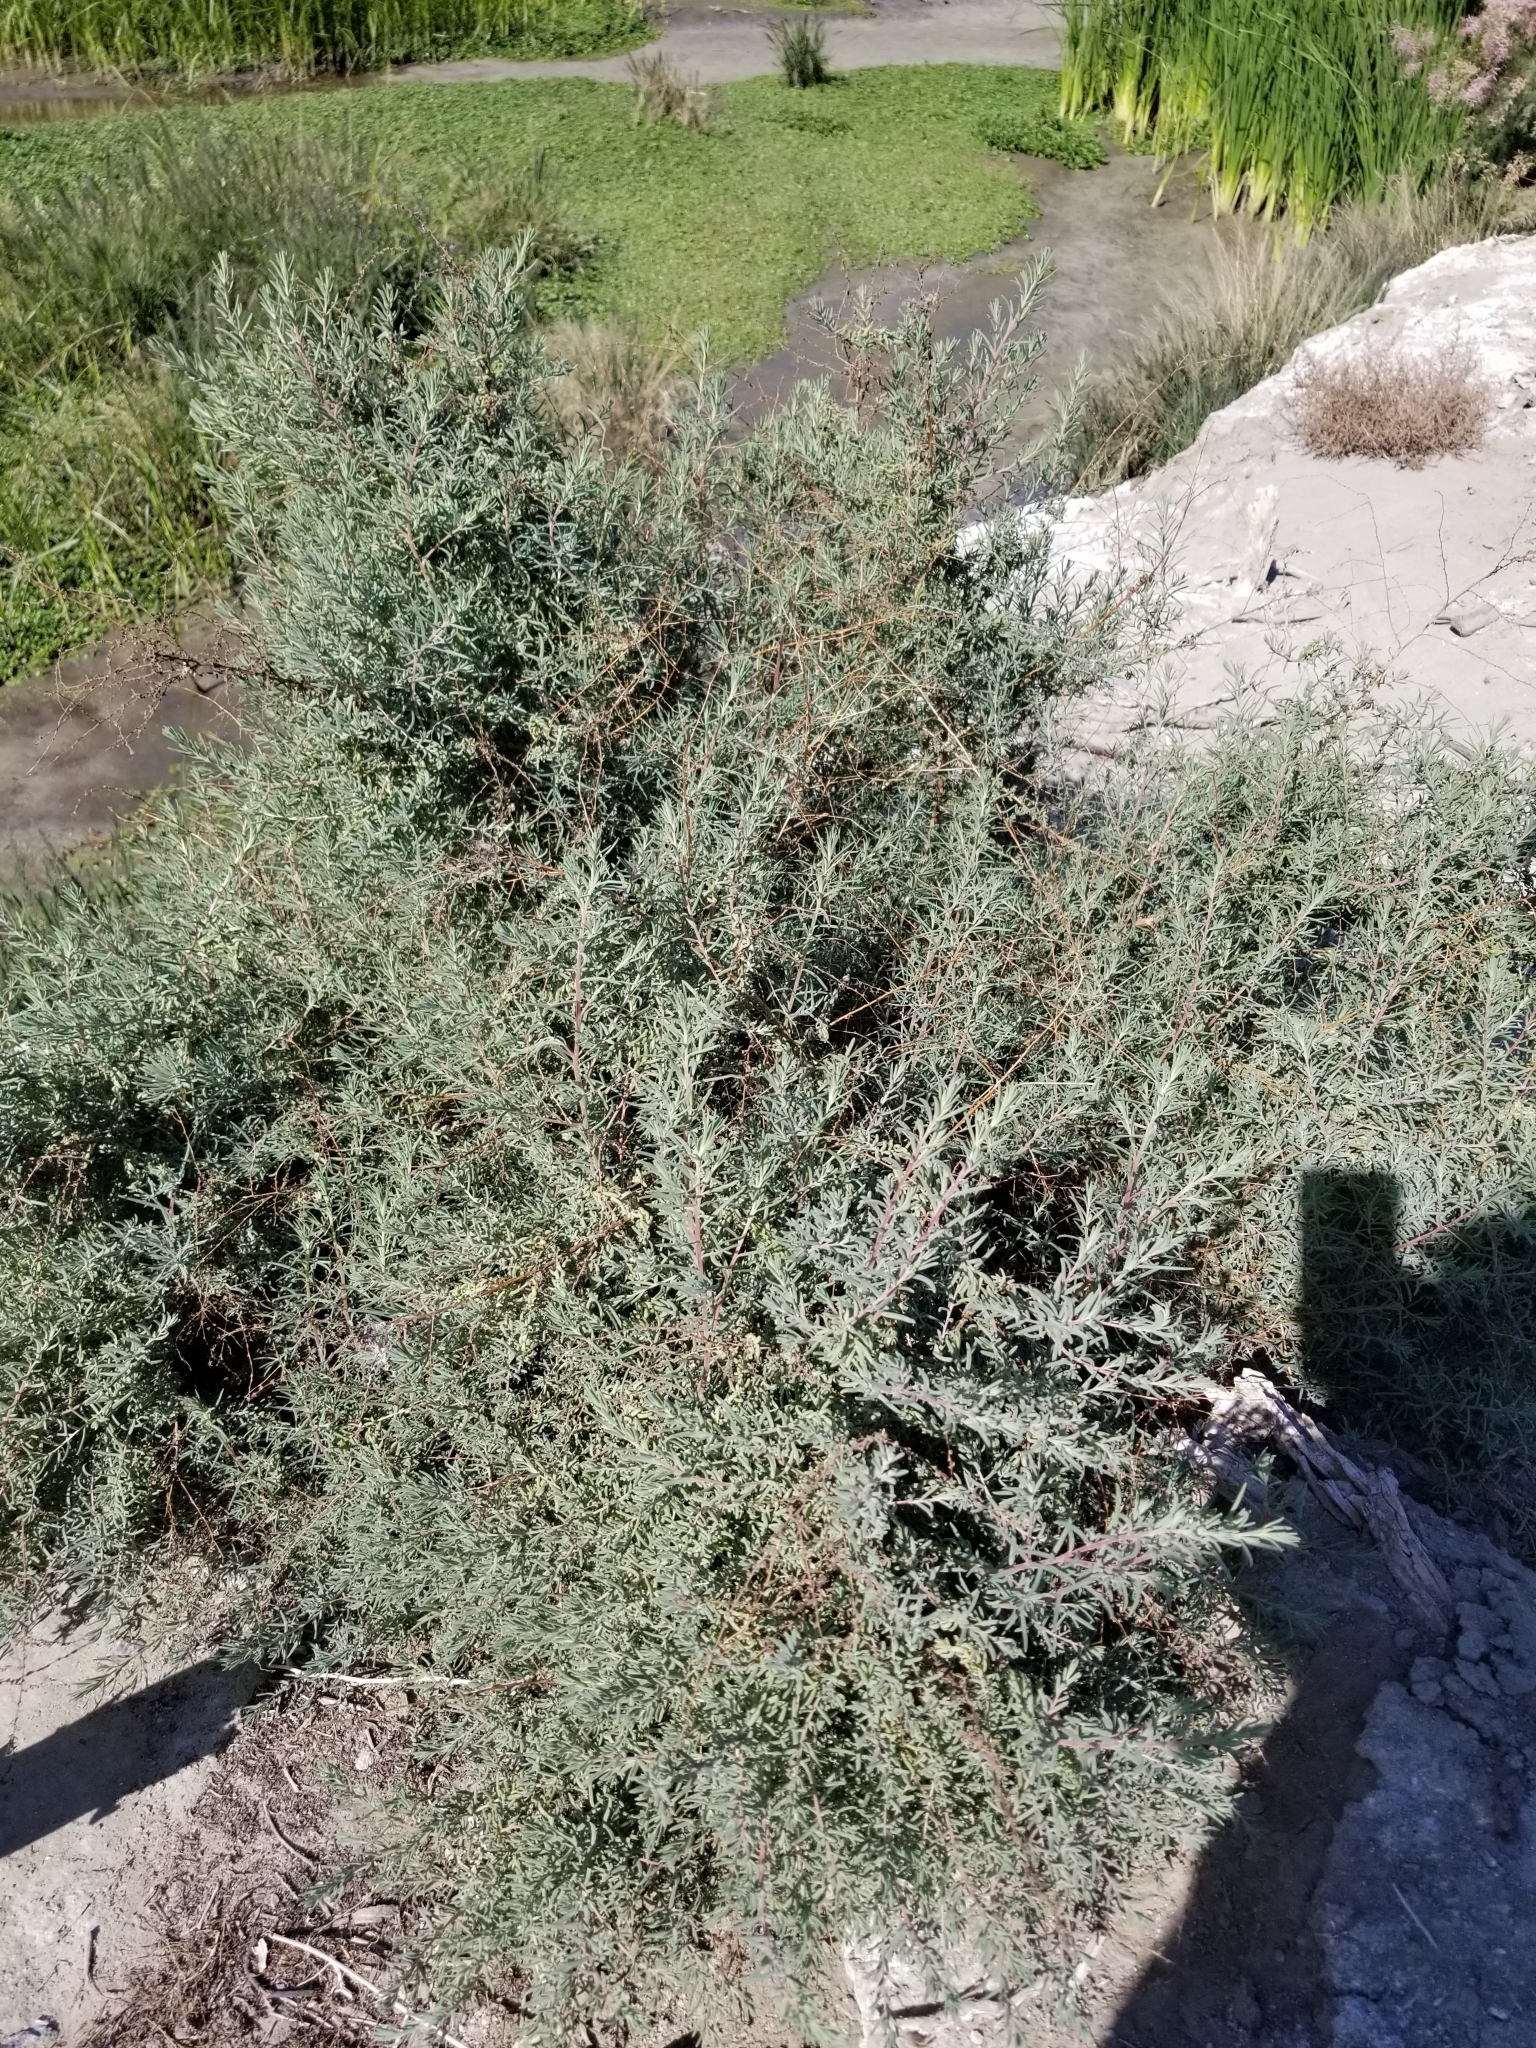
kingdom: Plantae
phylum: Tracheophyta
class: Magnoliopsida
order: Caryophyllales
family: Amaranthaceae
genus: Suaeda
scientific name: Suaeda nigra
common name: Bush seepweed
